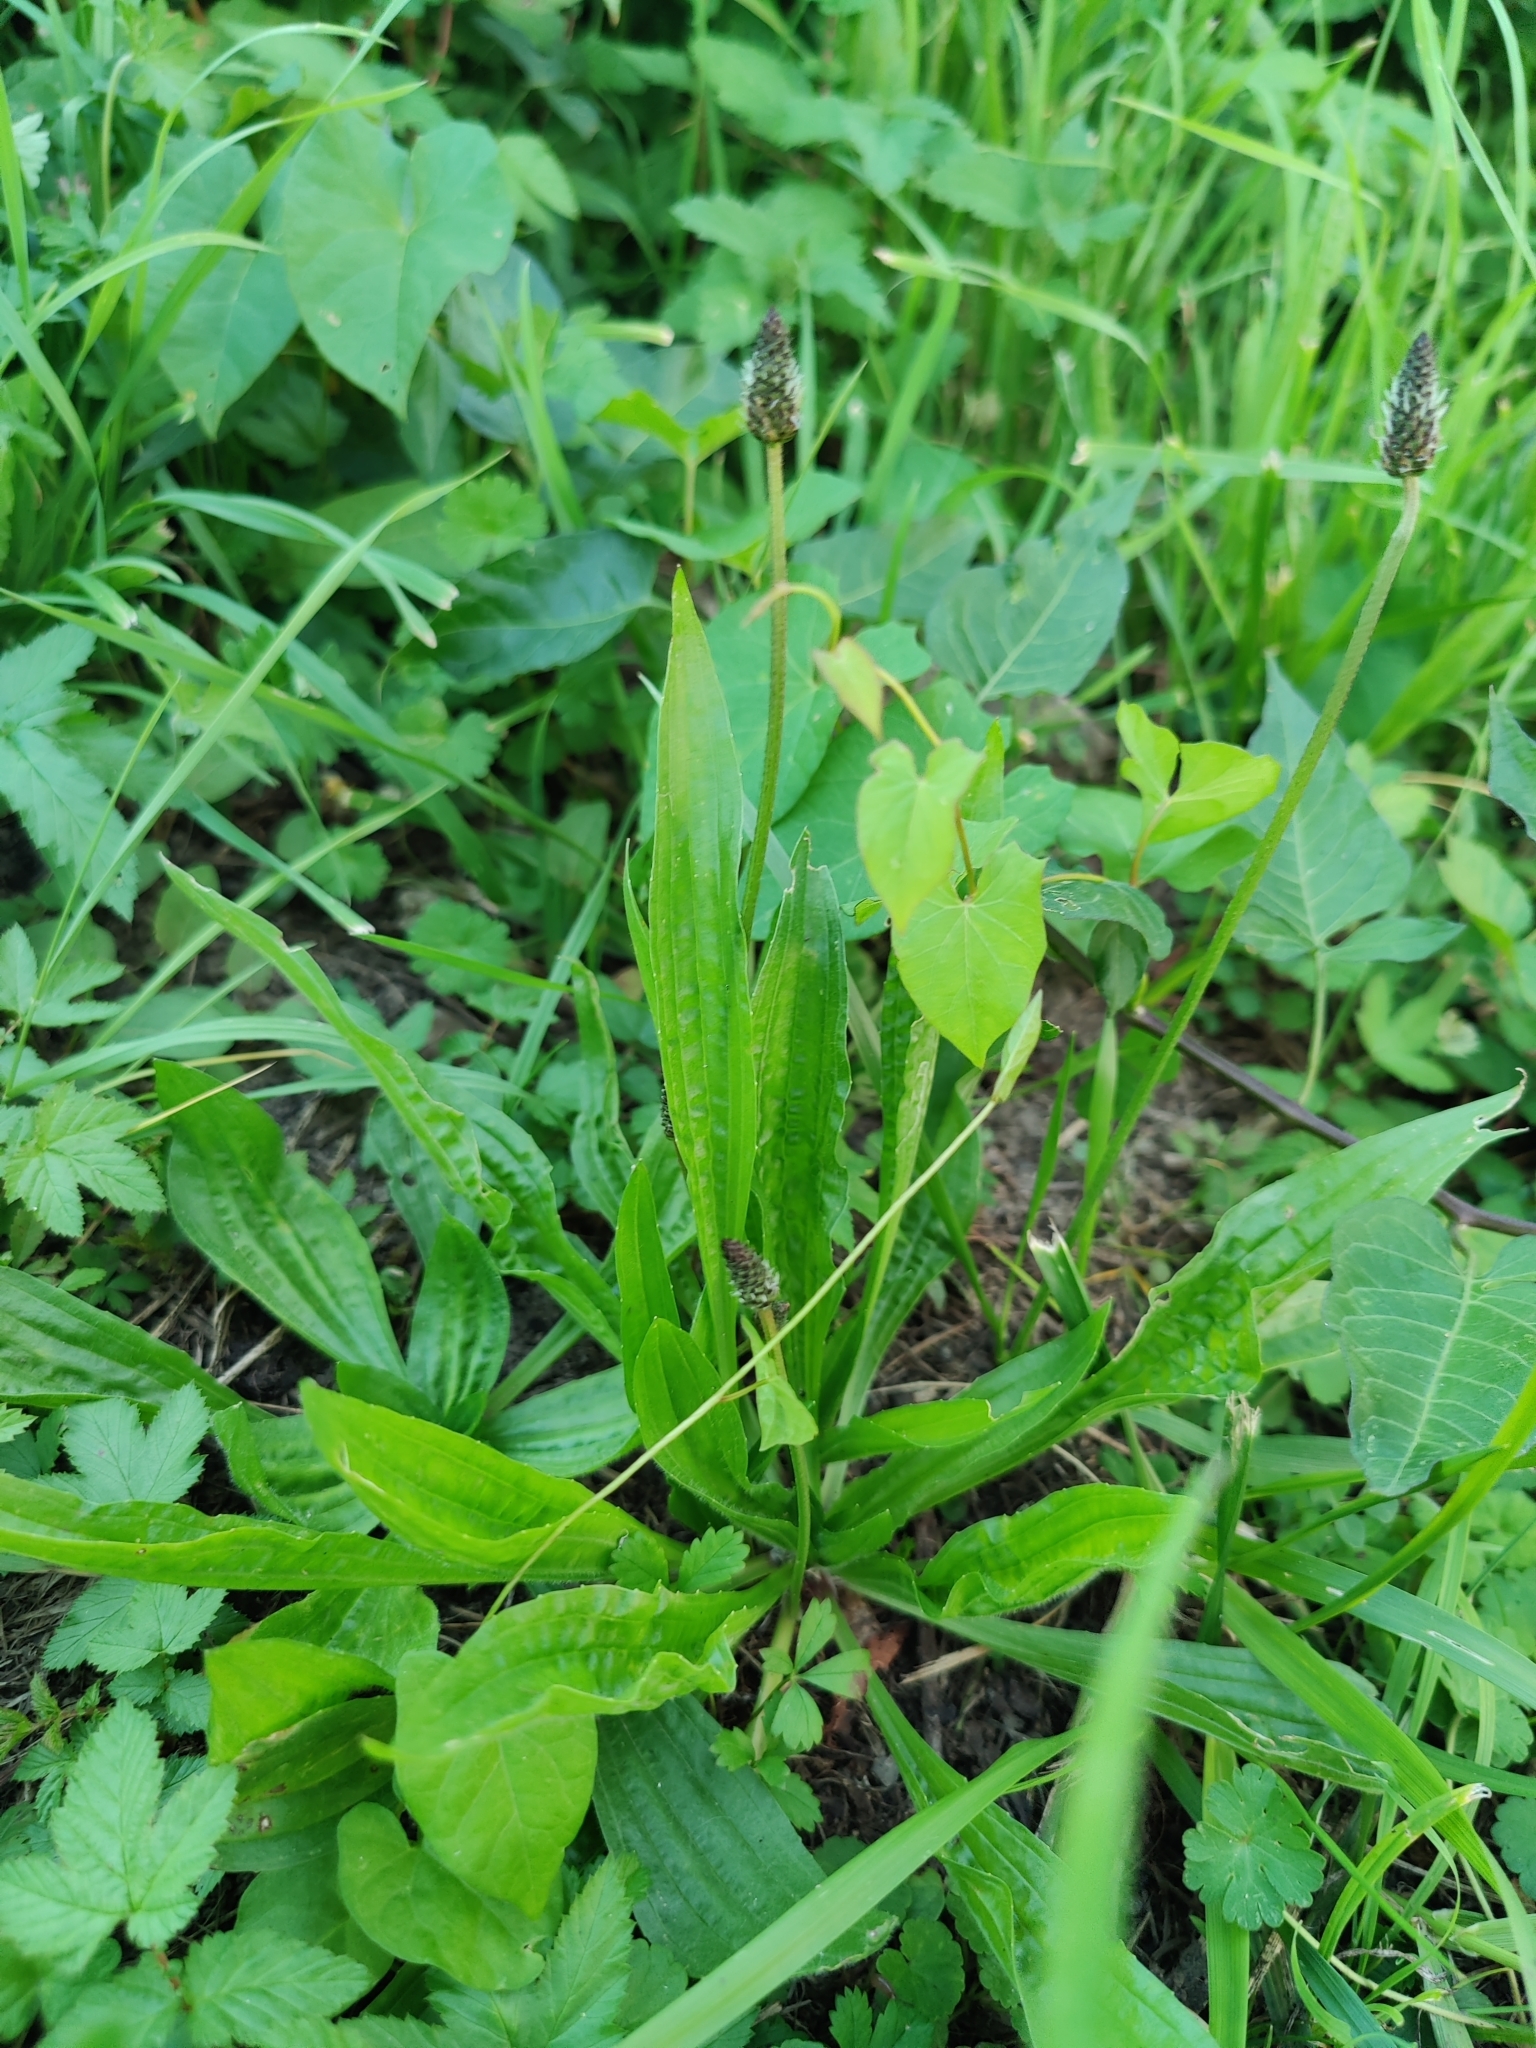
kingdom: Plantae
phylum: Tracheophyta
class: Magnoliopsida
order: Lamiales
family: Plantaginaceae
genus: Plantago
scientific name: Plantago lanceolata
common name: Ribwort plantain
